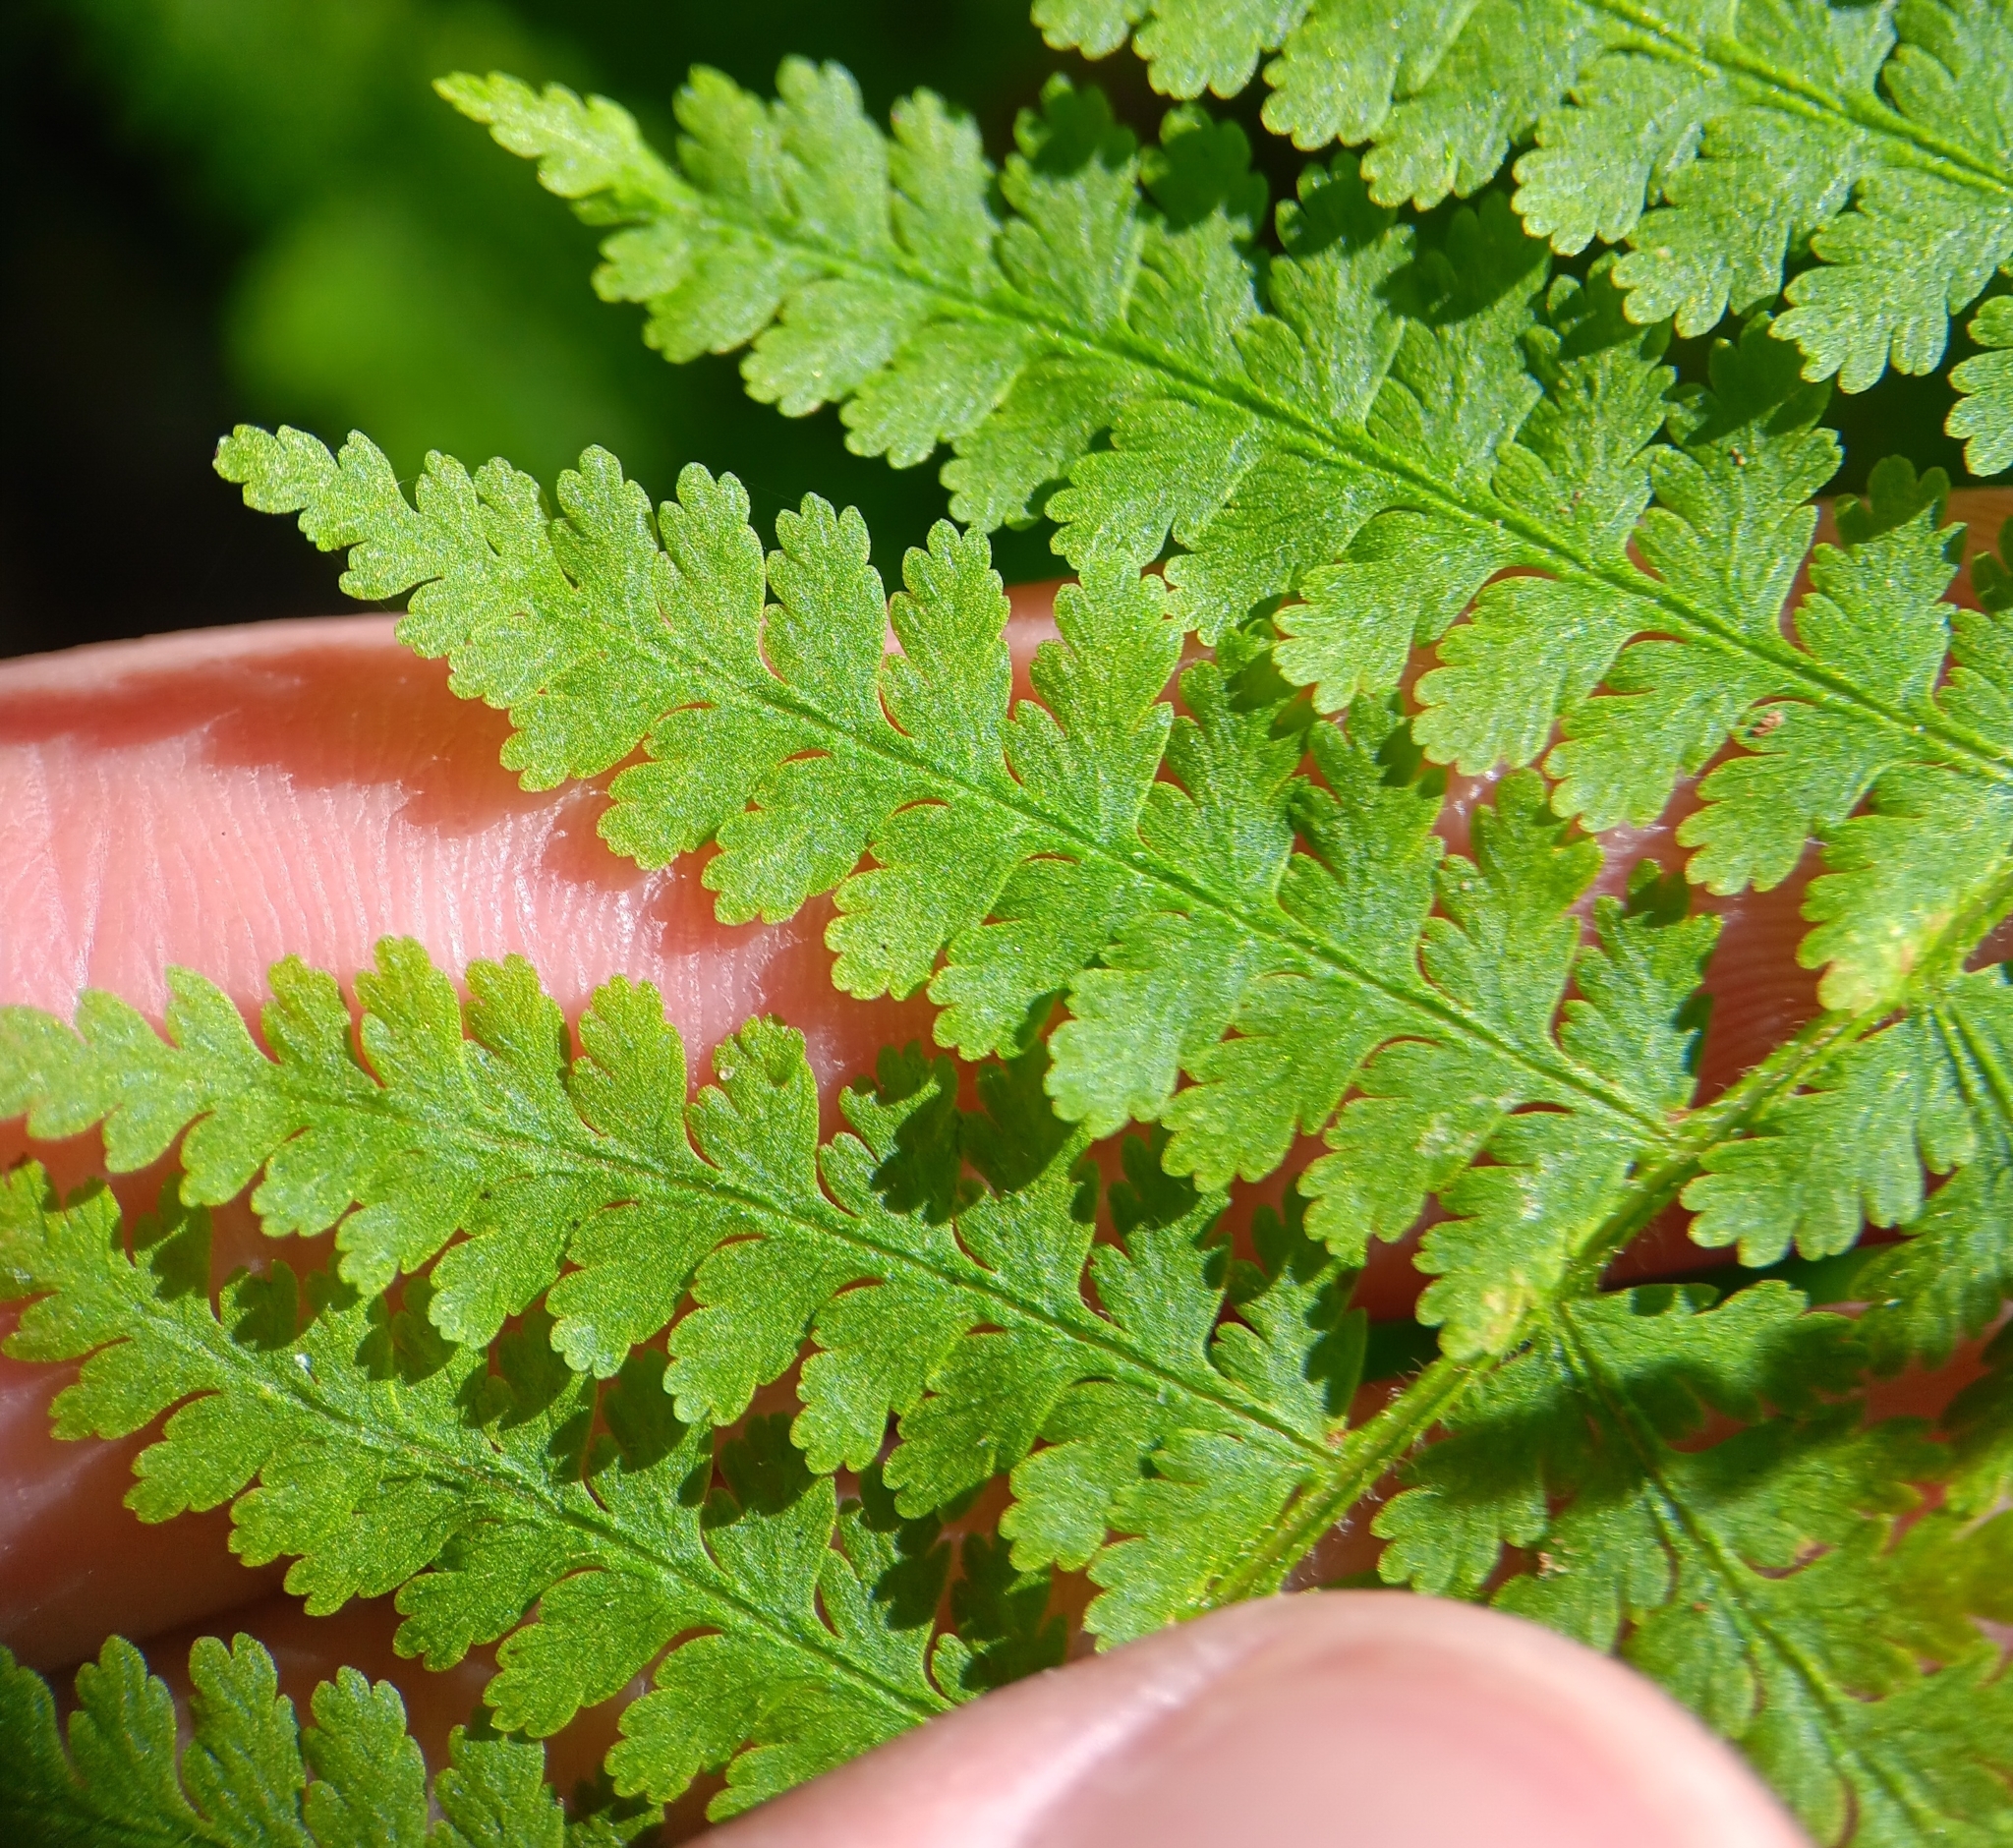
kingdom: Plantae
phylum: Tracheophyta
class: Polypodiopsida
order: Polypodiales
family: Dennstaedtiaceae
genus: Sitobolium
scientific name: Sitobolium punctilobum
